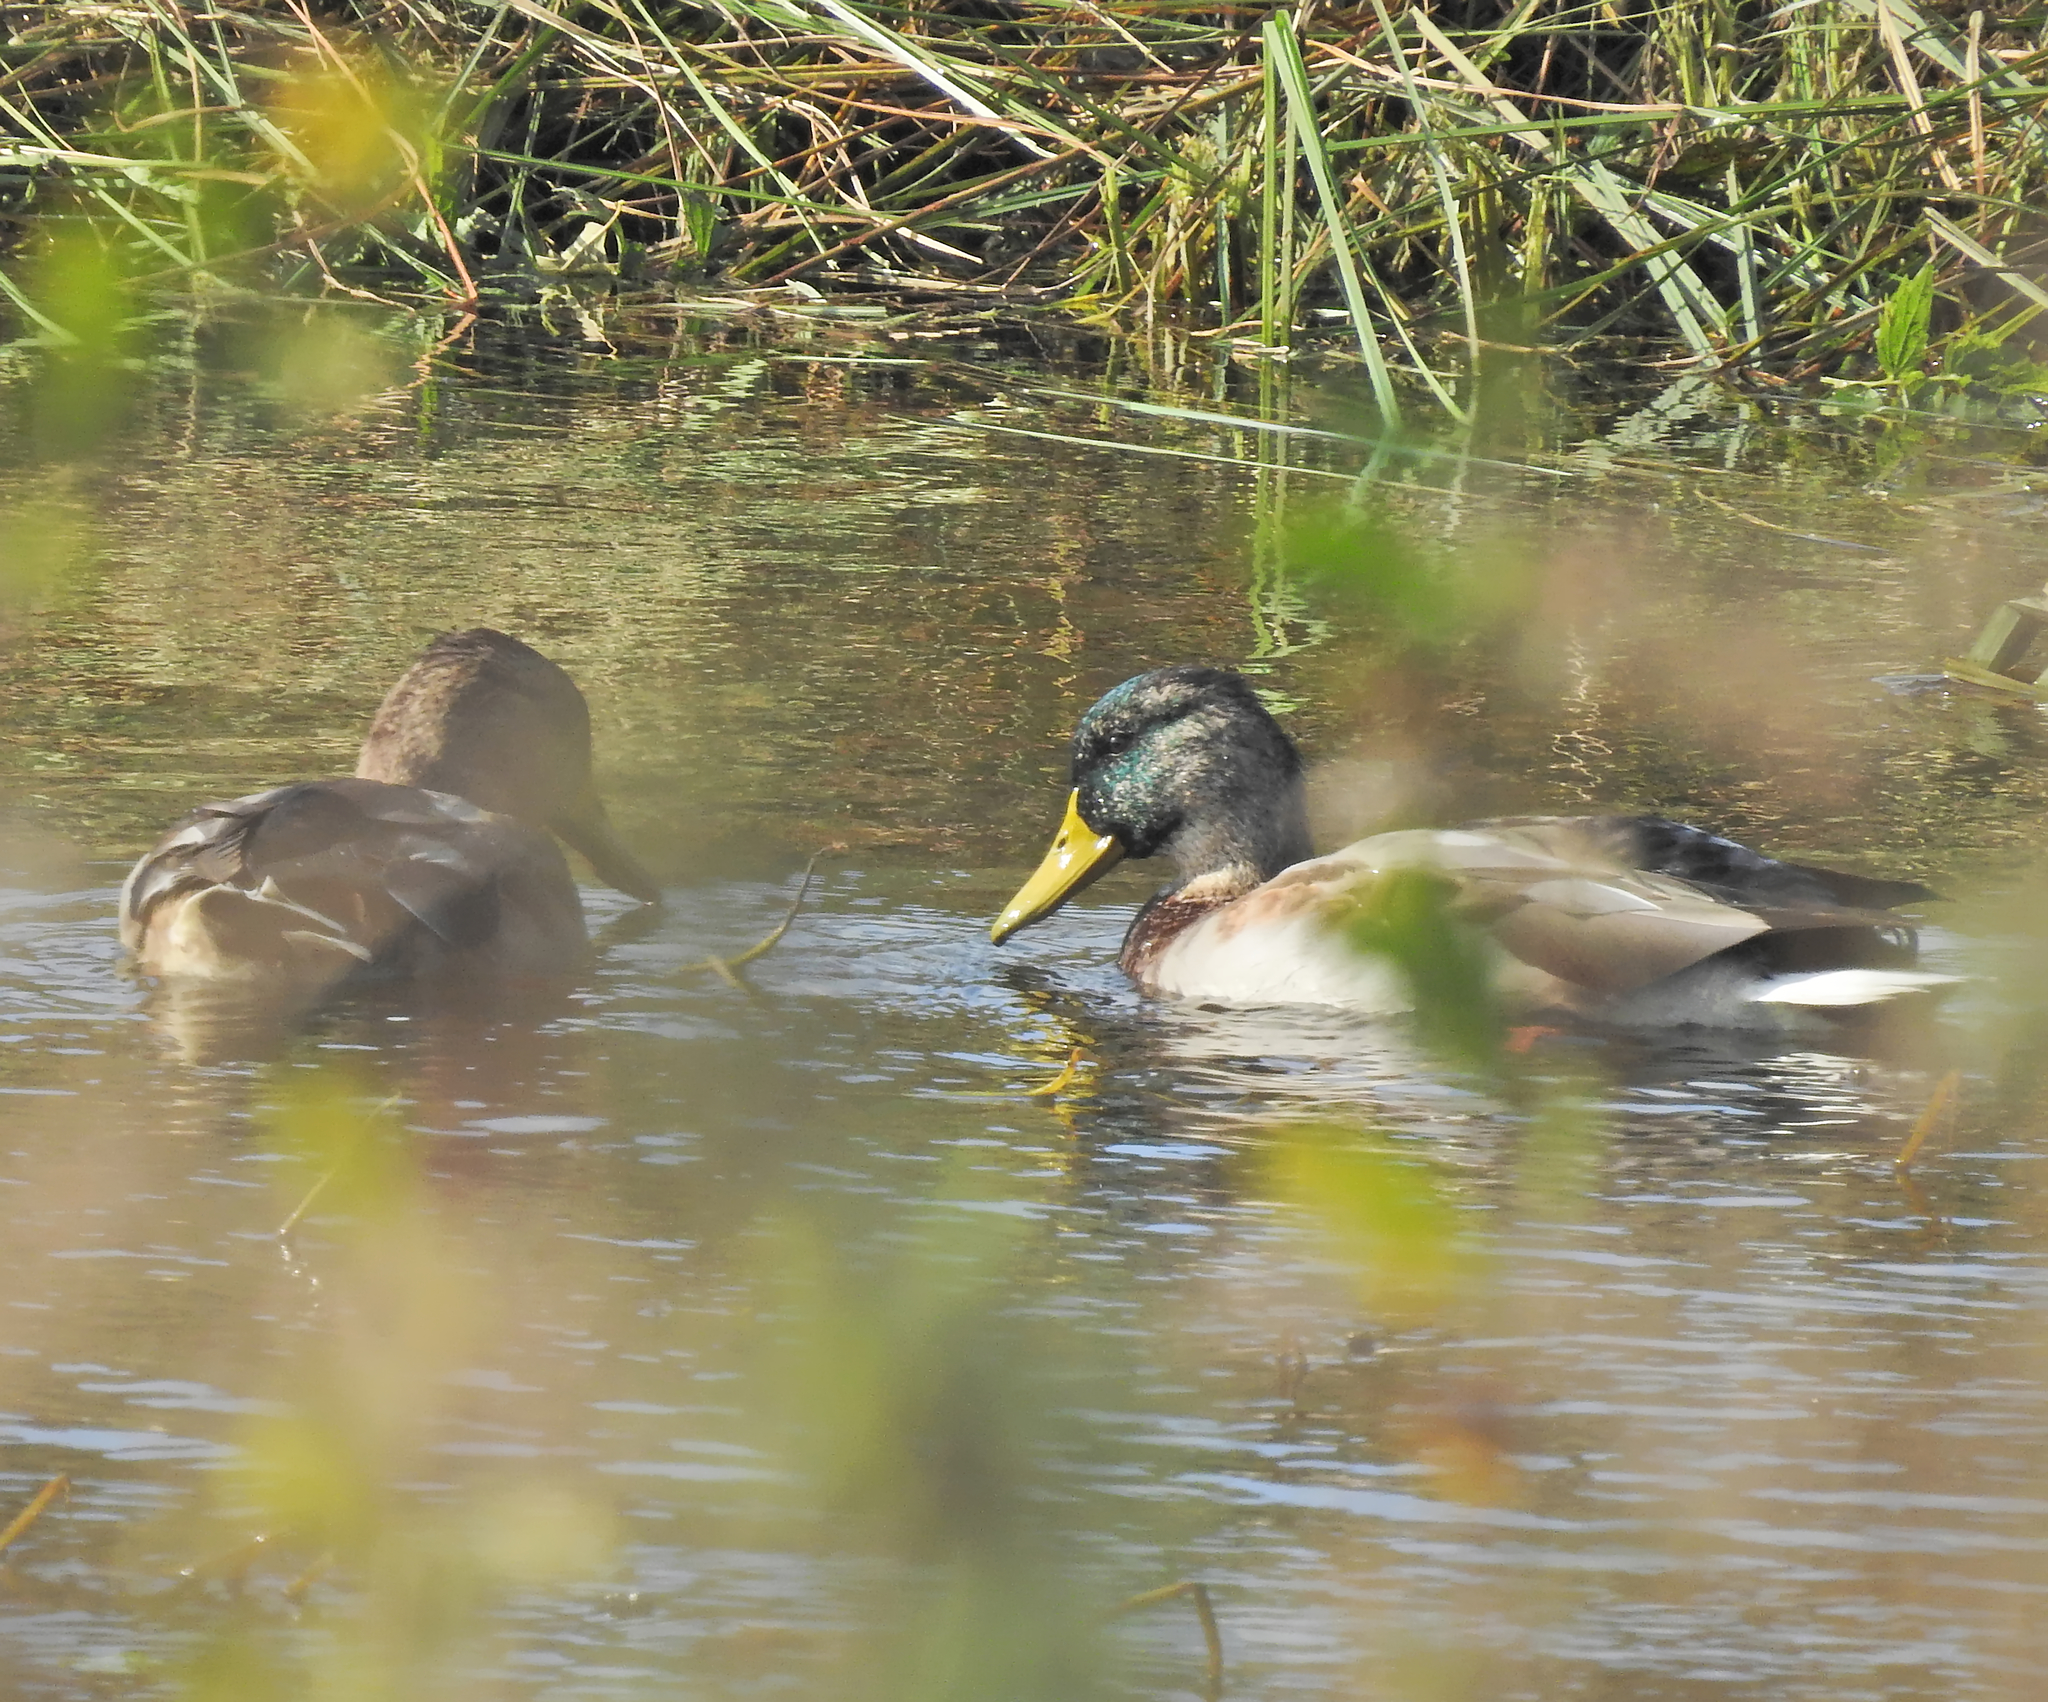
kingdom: Animalia
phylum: Chordata
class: Aves
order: Anseriformes
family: Anatidae
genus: Anas
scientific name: Anas platyrhynchos
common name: Mallard
